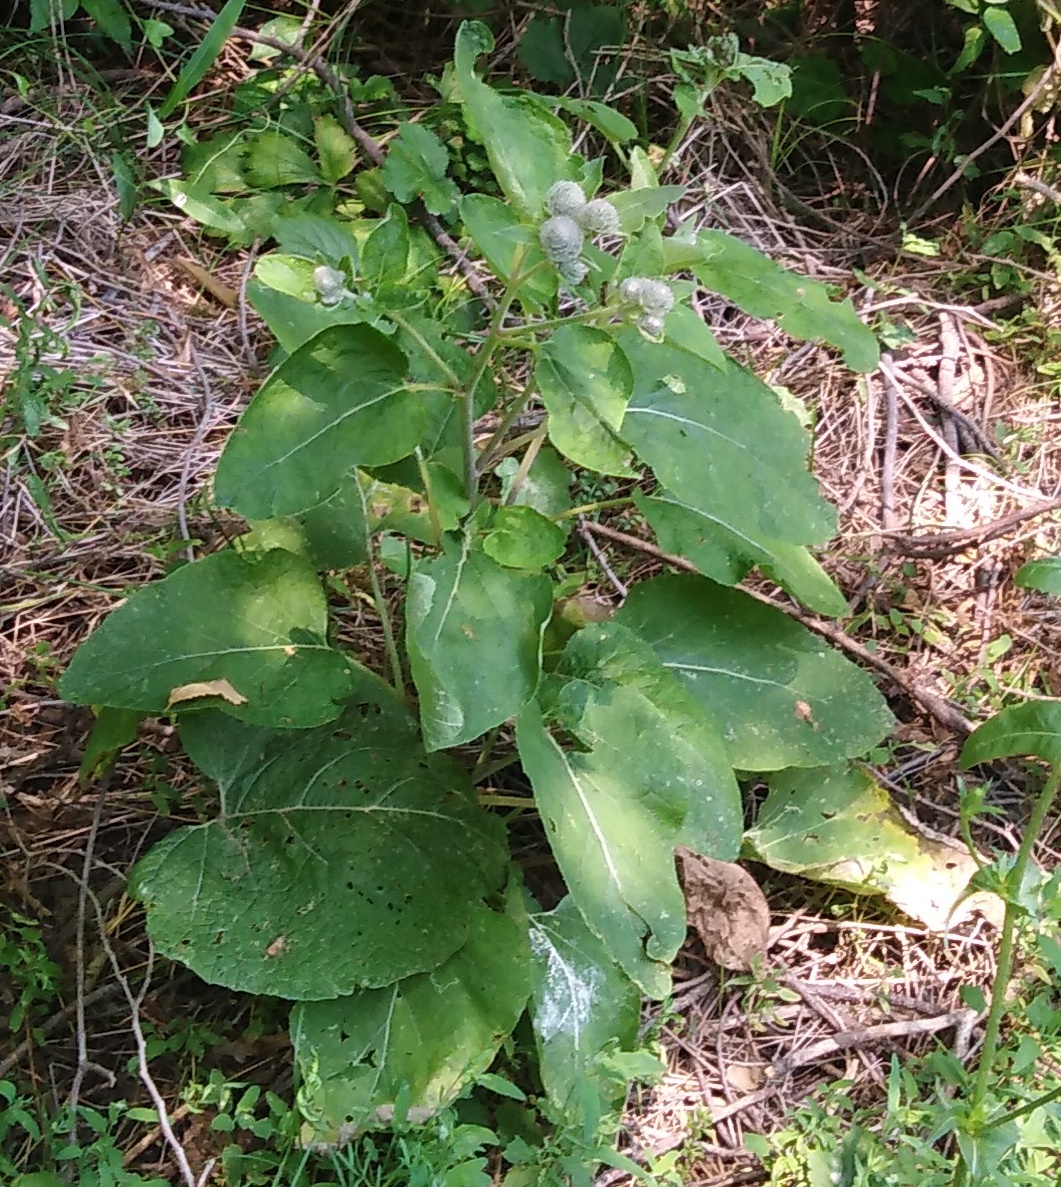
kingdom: Plantae
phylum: Tracheophyta
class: Magnoliopsida
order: Asterales
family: Asteraceae
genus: Arctium
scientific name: Arctium tomentosum
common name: Woolly burdock
